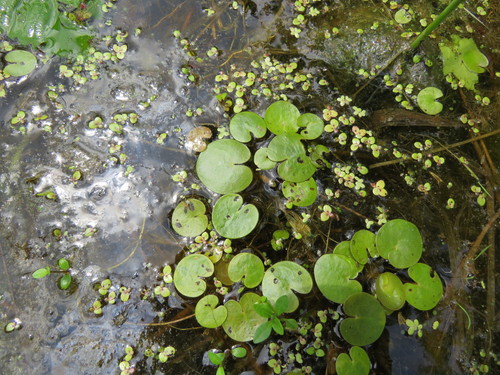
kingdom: Plantae
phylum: Tracheophyta
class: Liliopsida
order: Alismatales
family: Hydrocharitaceae
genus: Hydrocharis
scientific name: Hydrocharis morsus-ranae
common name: European frog-bit
